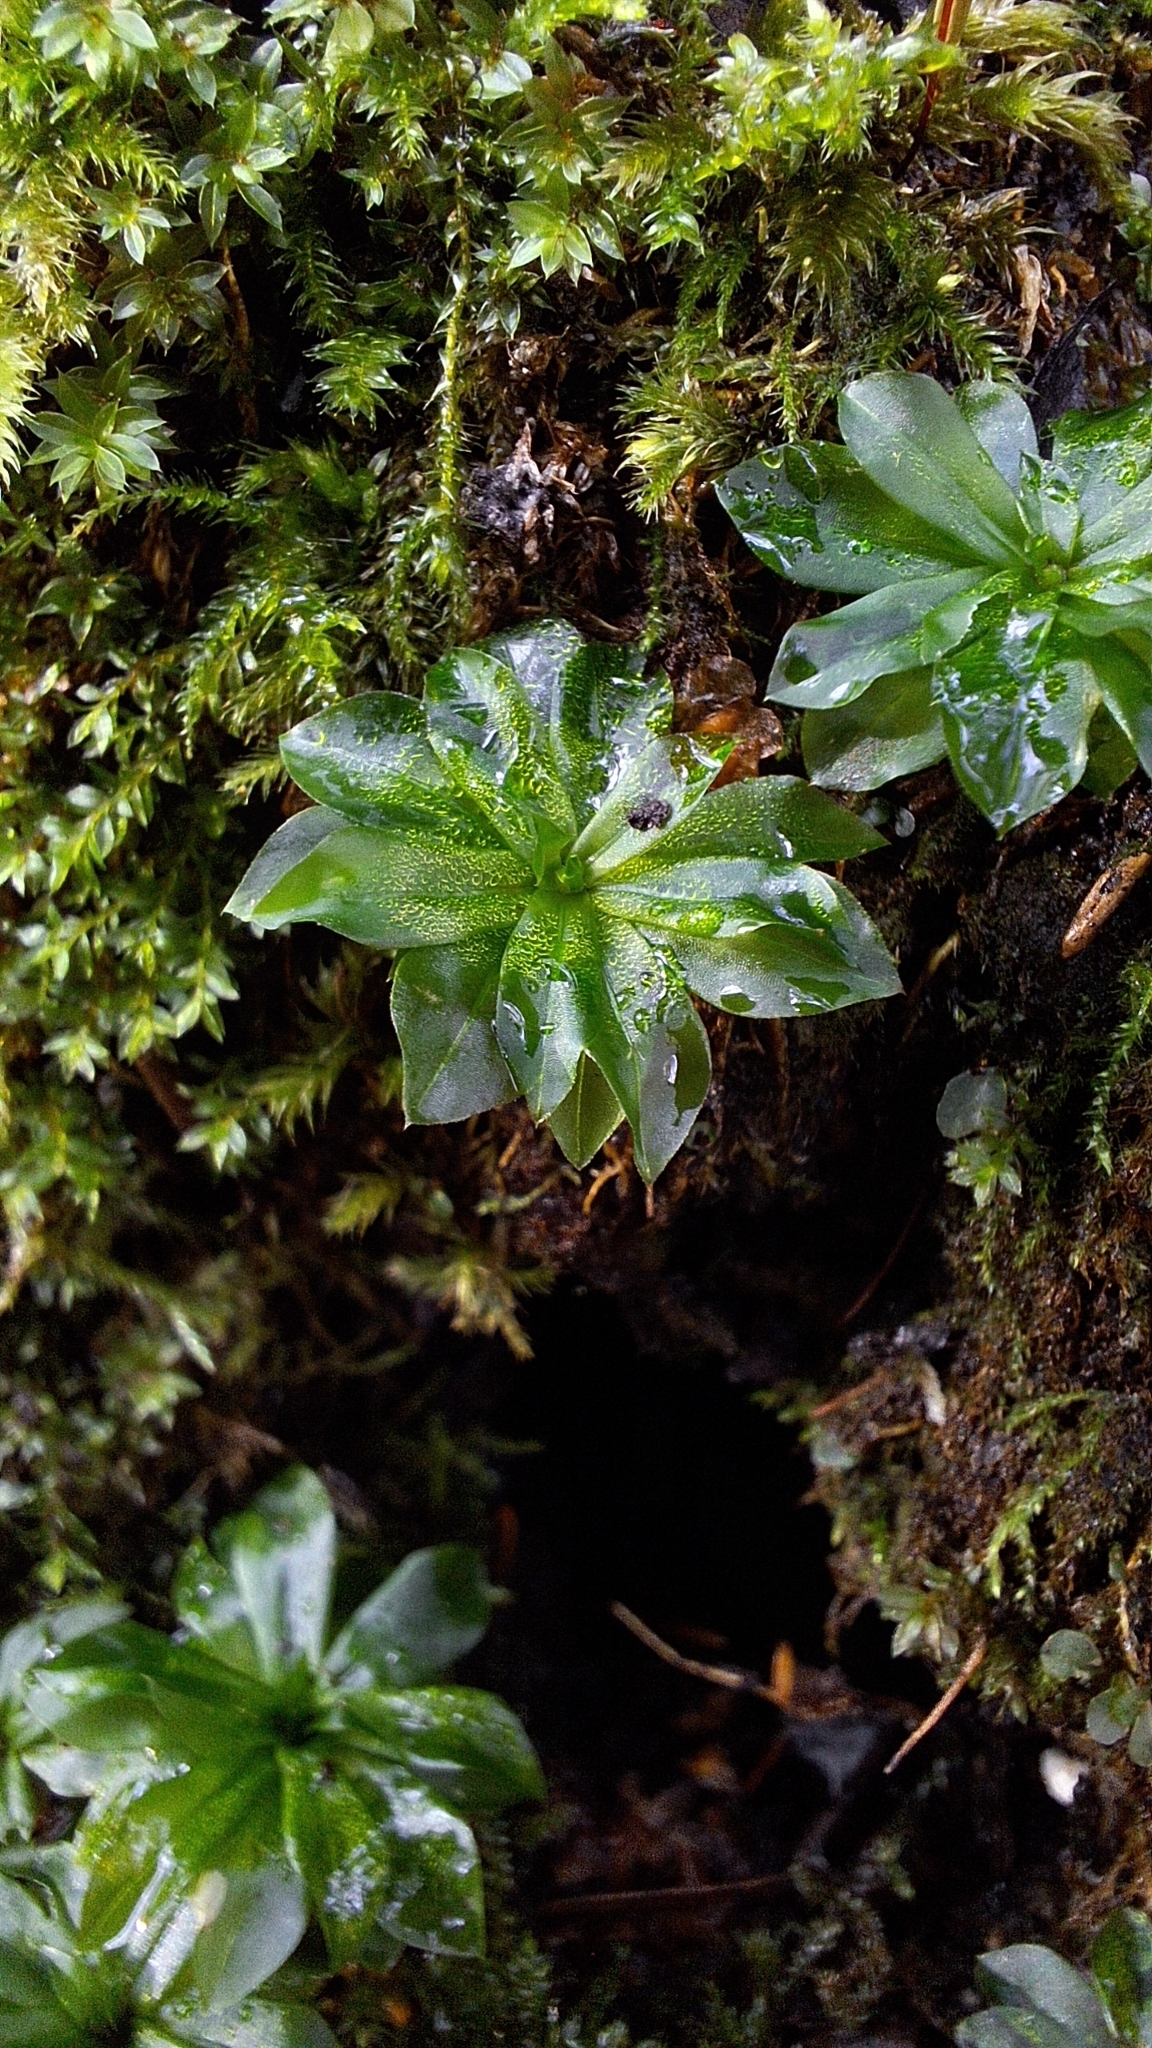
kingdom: Plantae
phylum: Bryophyta
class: Bryopsida
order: Bryales
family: Bryaceae
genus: Rhodobryum
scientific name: Rhodobryum roseum
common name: Rose-moss
